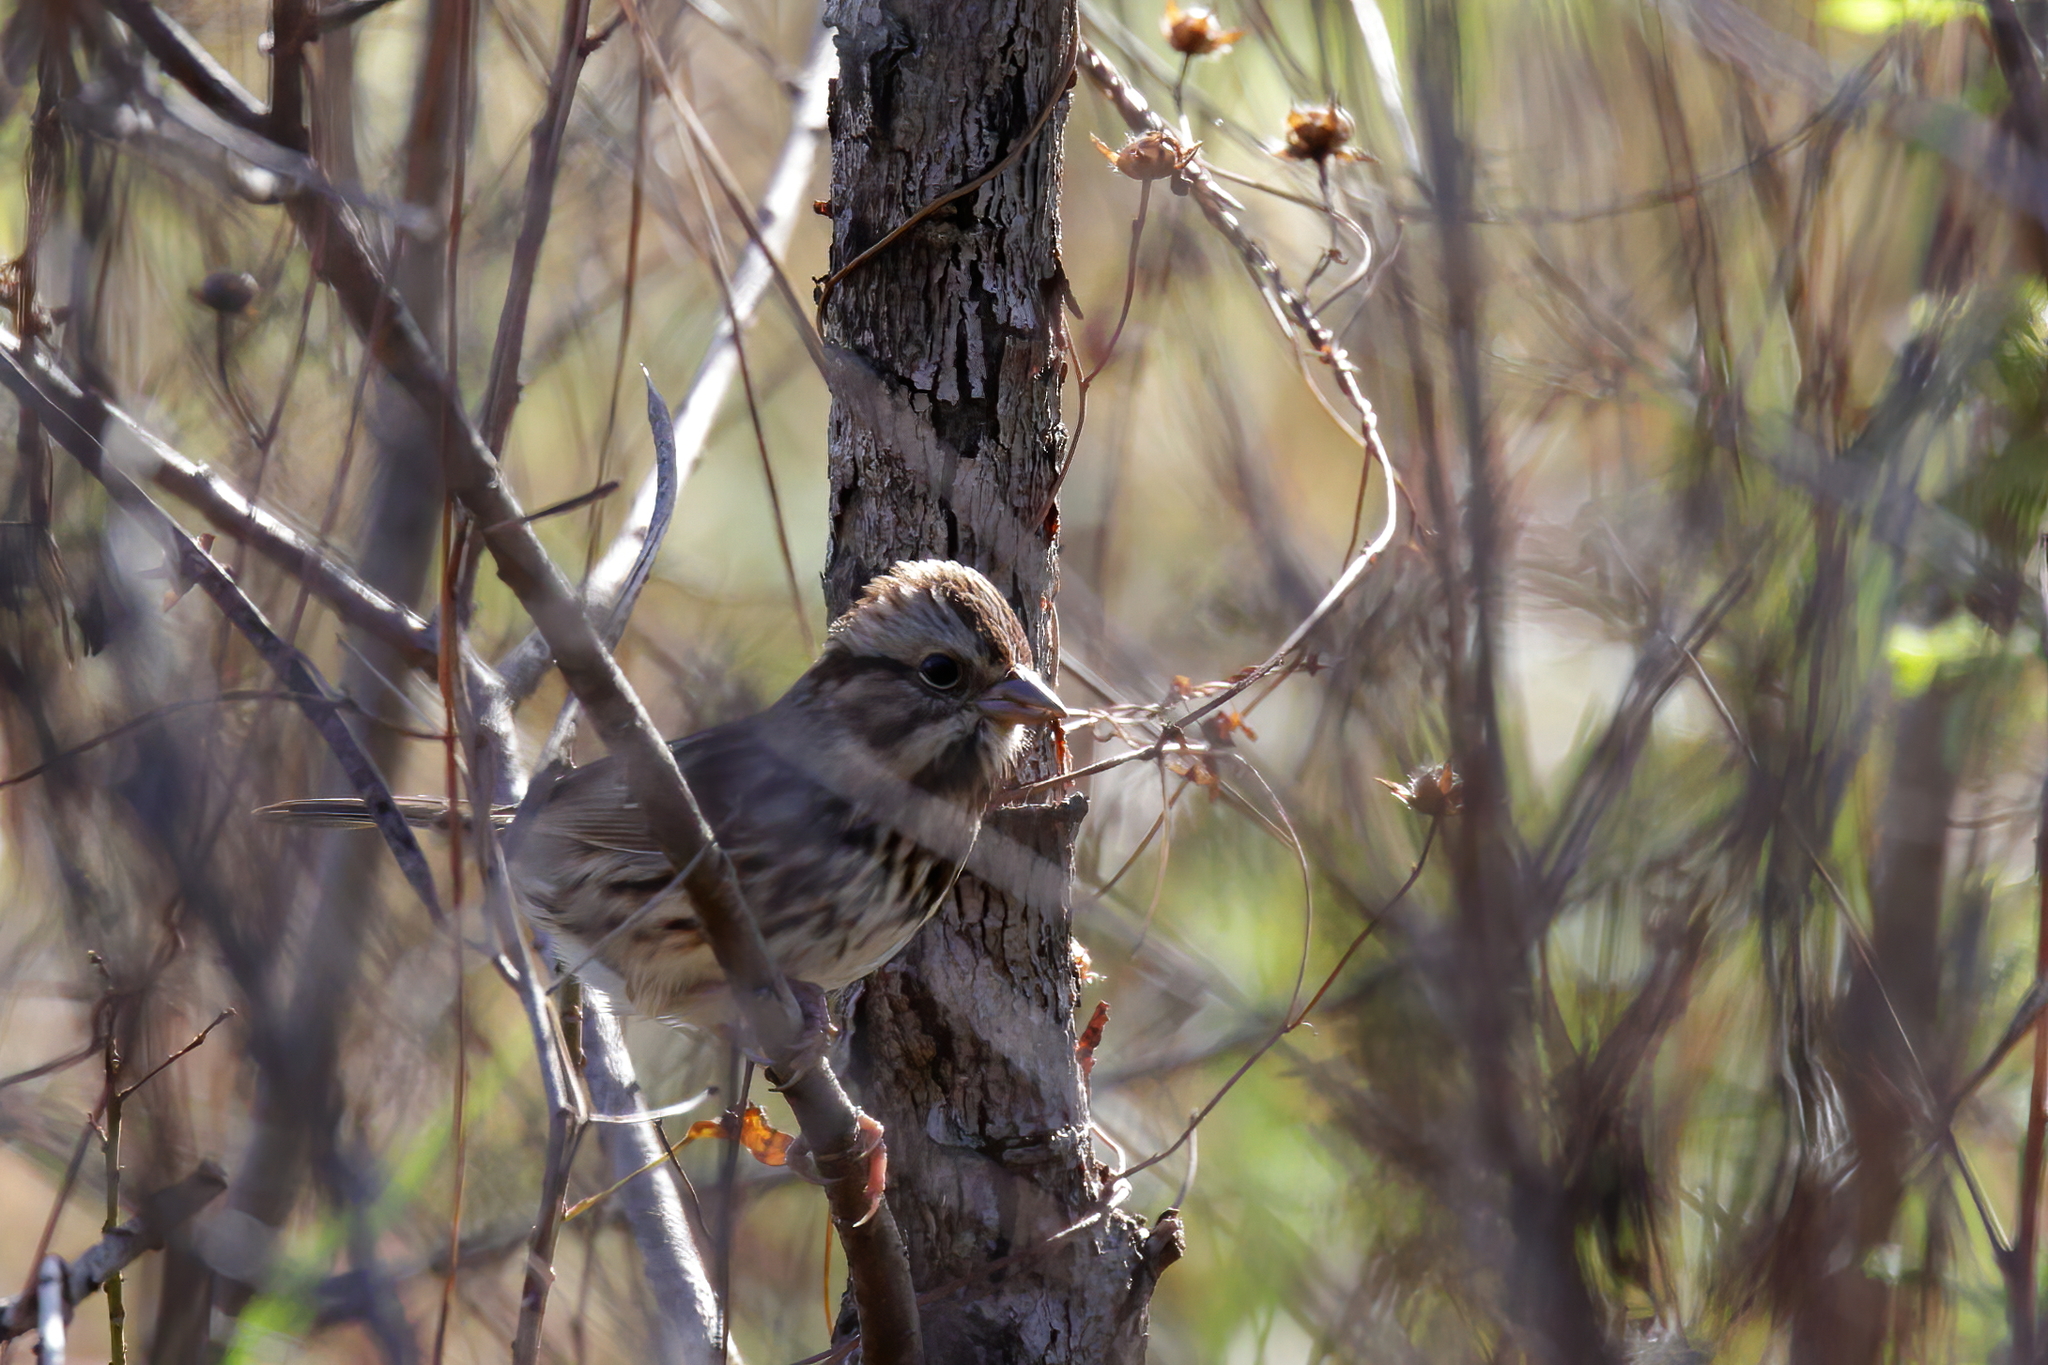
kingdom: Animalia
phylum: Chordata
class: Aves
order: Passeriformes
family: Passerellidae
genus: Melospiza
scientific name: Melospiza melodia
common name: Song sparrow
